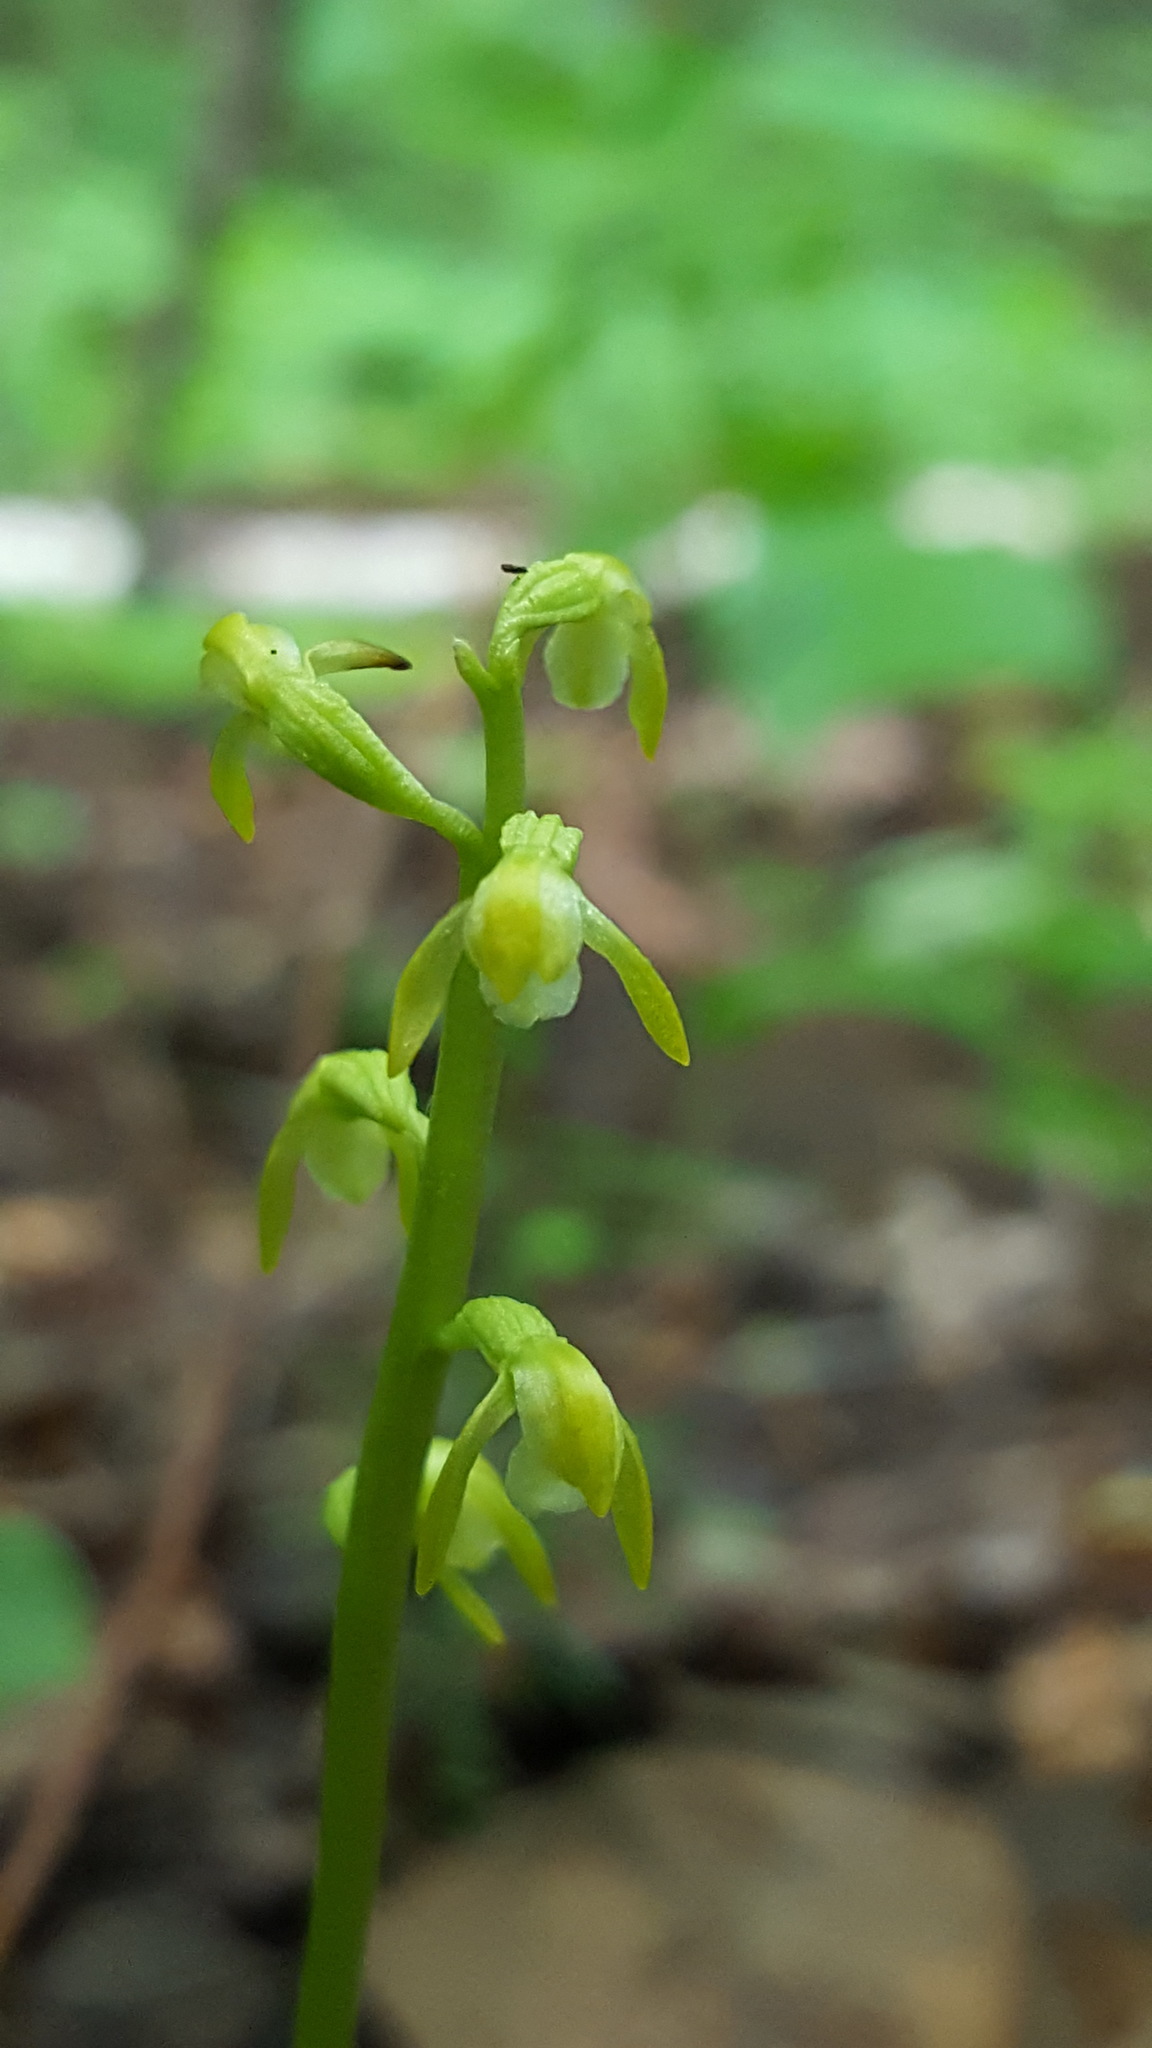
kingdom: Plantae
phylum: Tracheophyta
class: Liliopsida
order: Asparagales
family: Orchidaceae
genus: Corallorhiza
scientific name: Corallorhiza trifida
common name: Yellow coralroot
